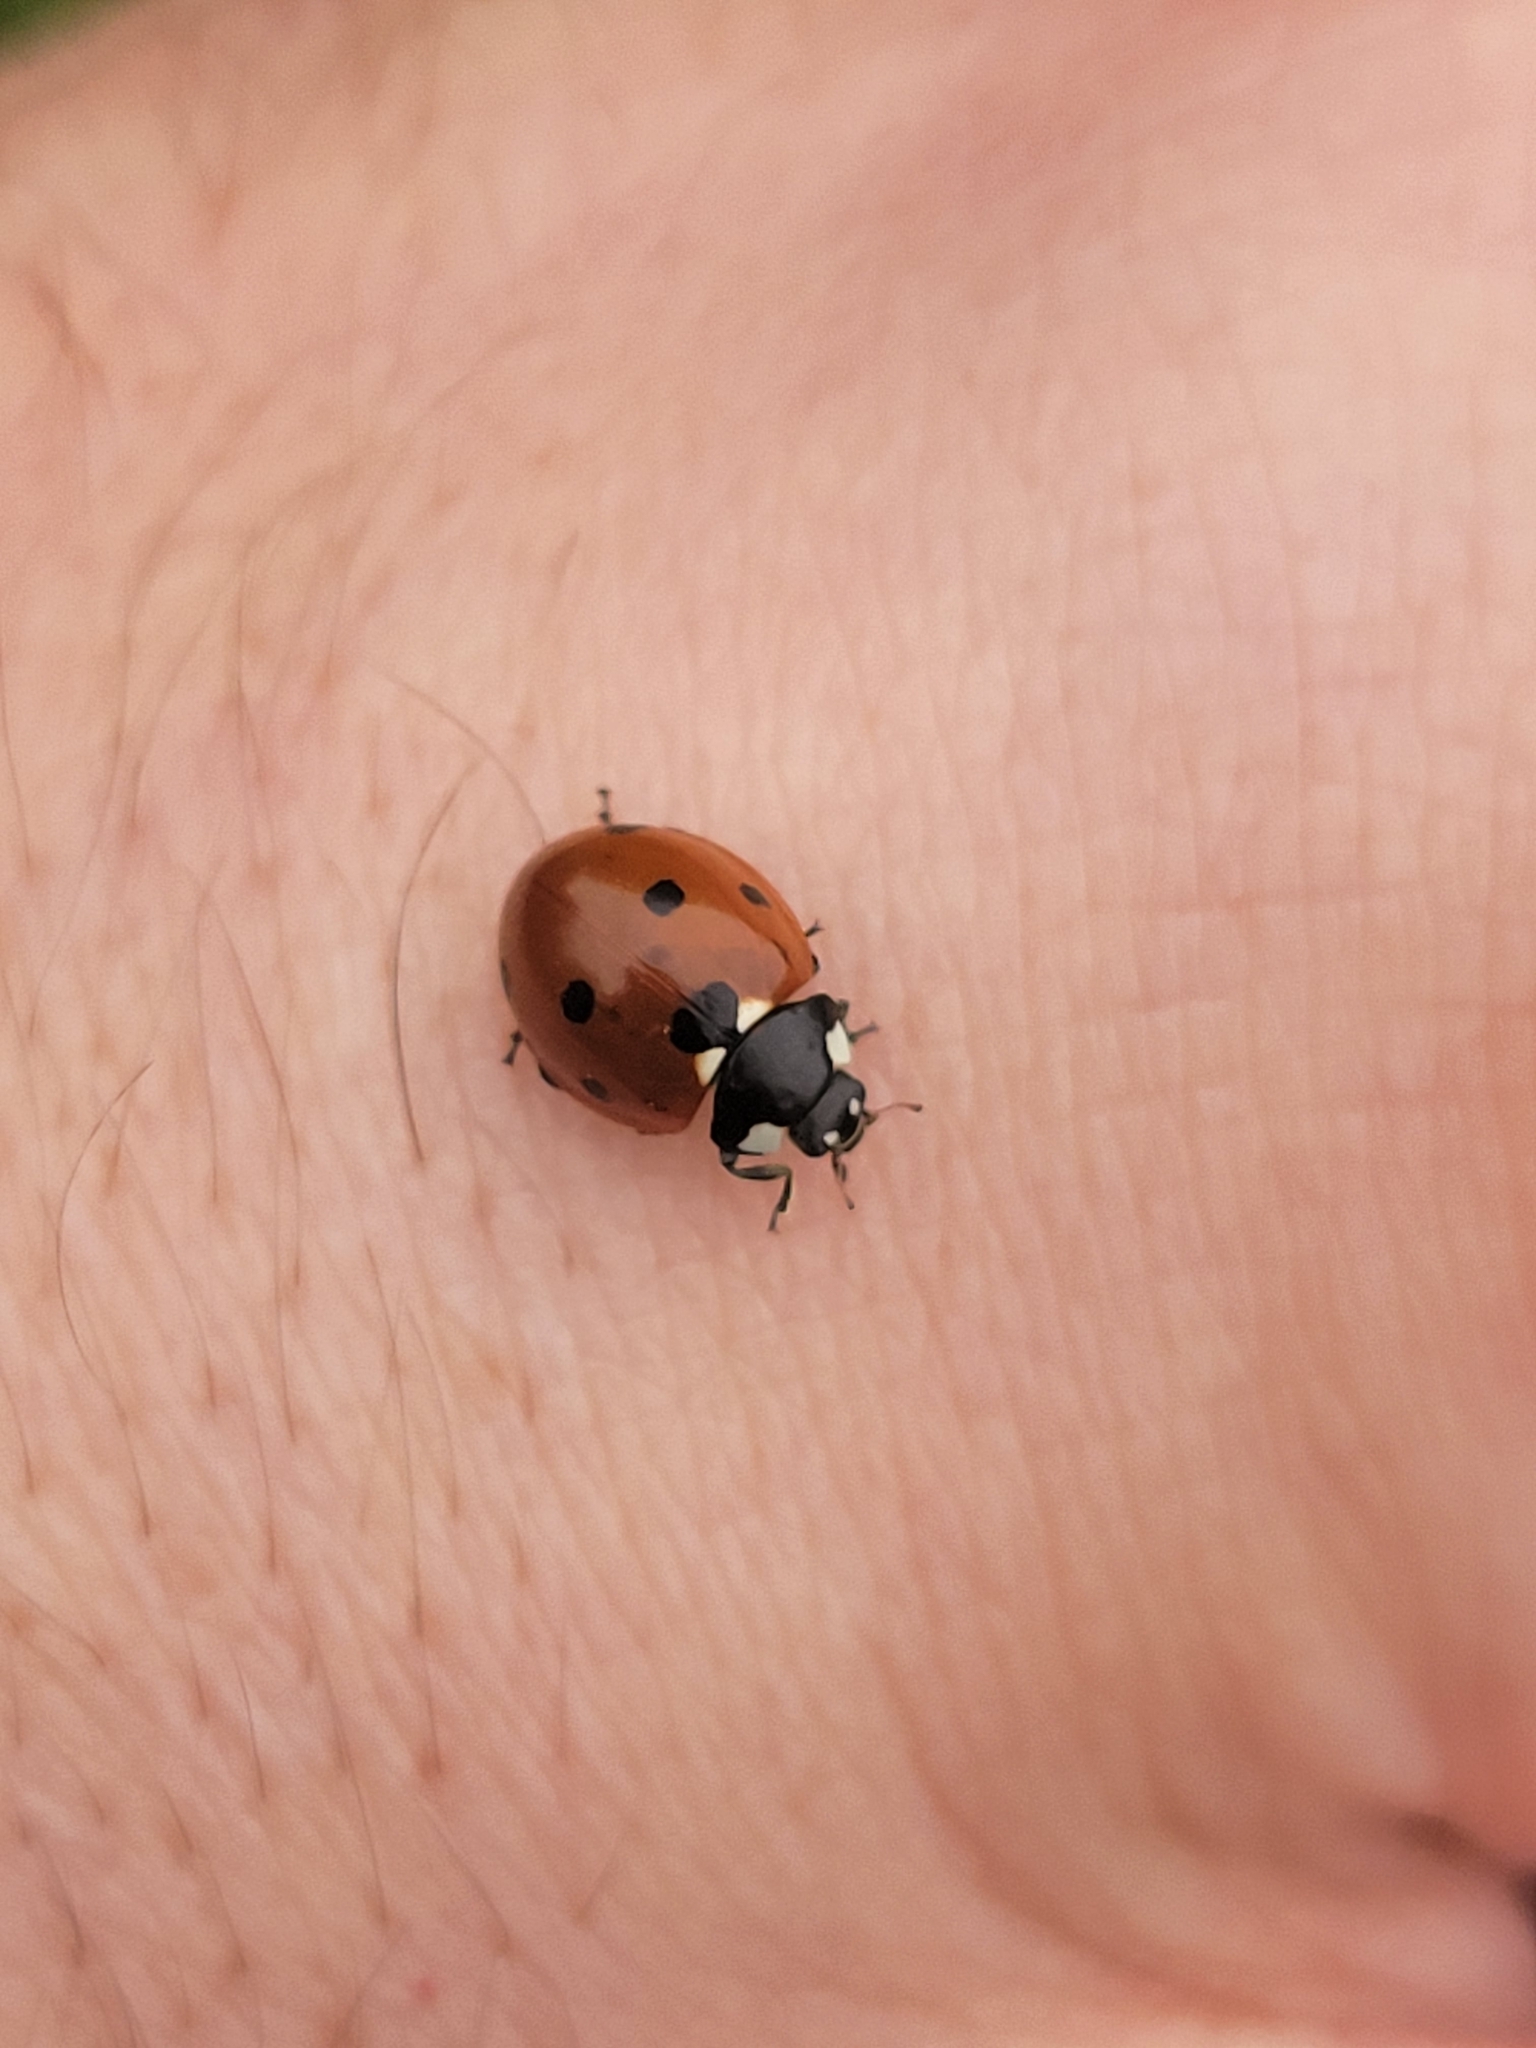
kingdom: Animalia
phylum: Arthropoda
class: Insecta
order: Coleoptera
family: Coccinellidae
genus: Coccinella
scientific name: Coccinella septempunctata
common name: Sevenspotted lady beetle
